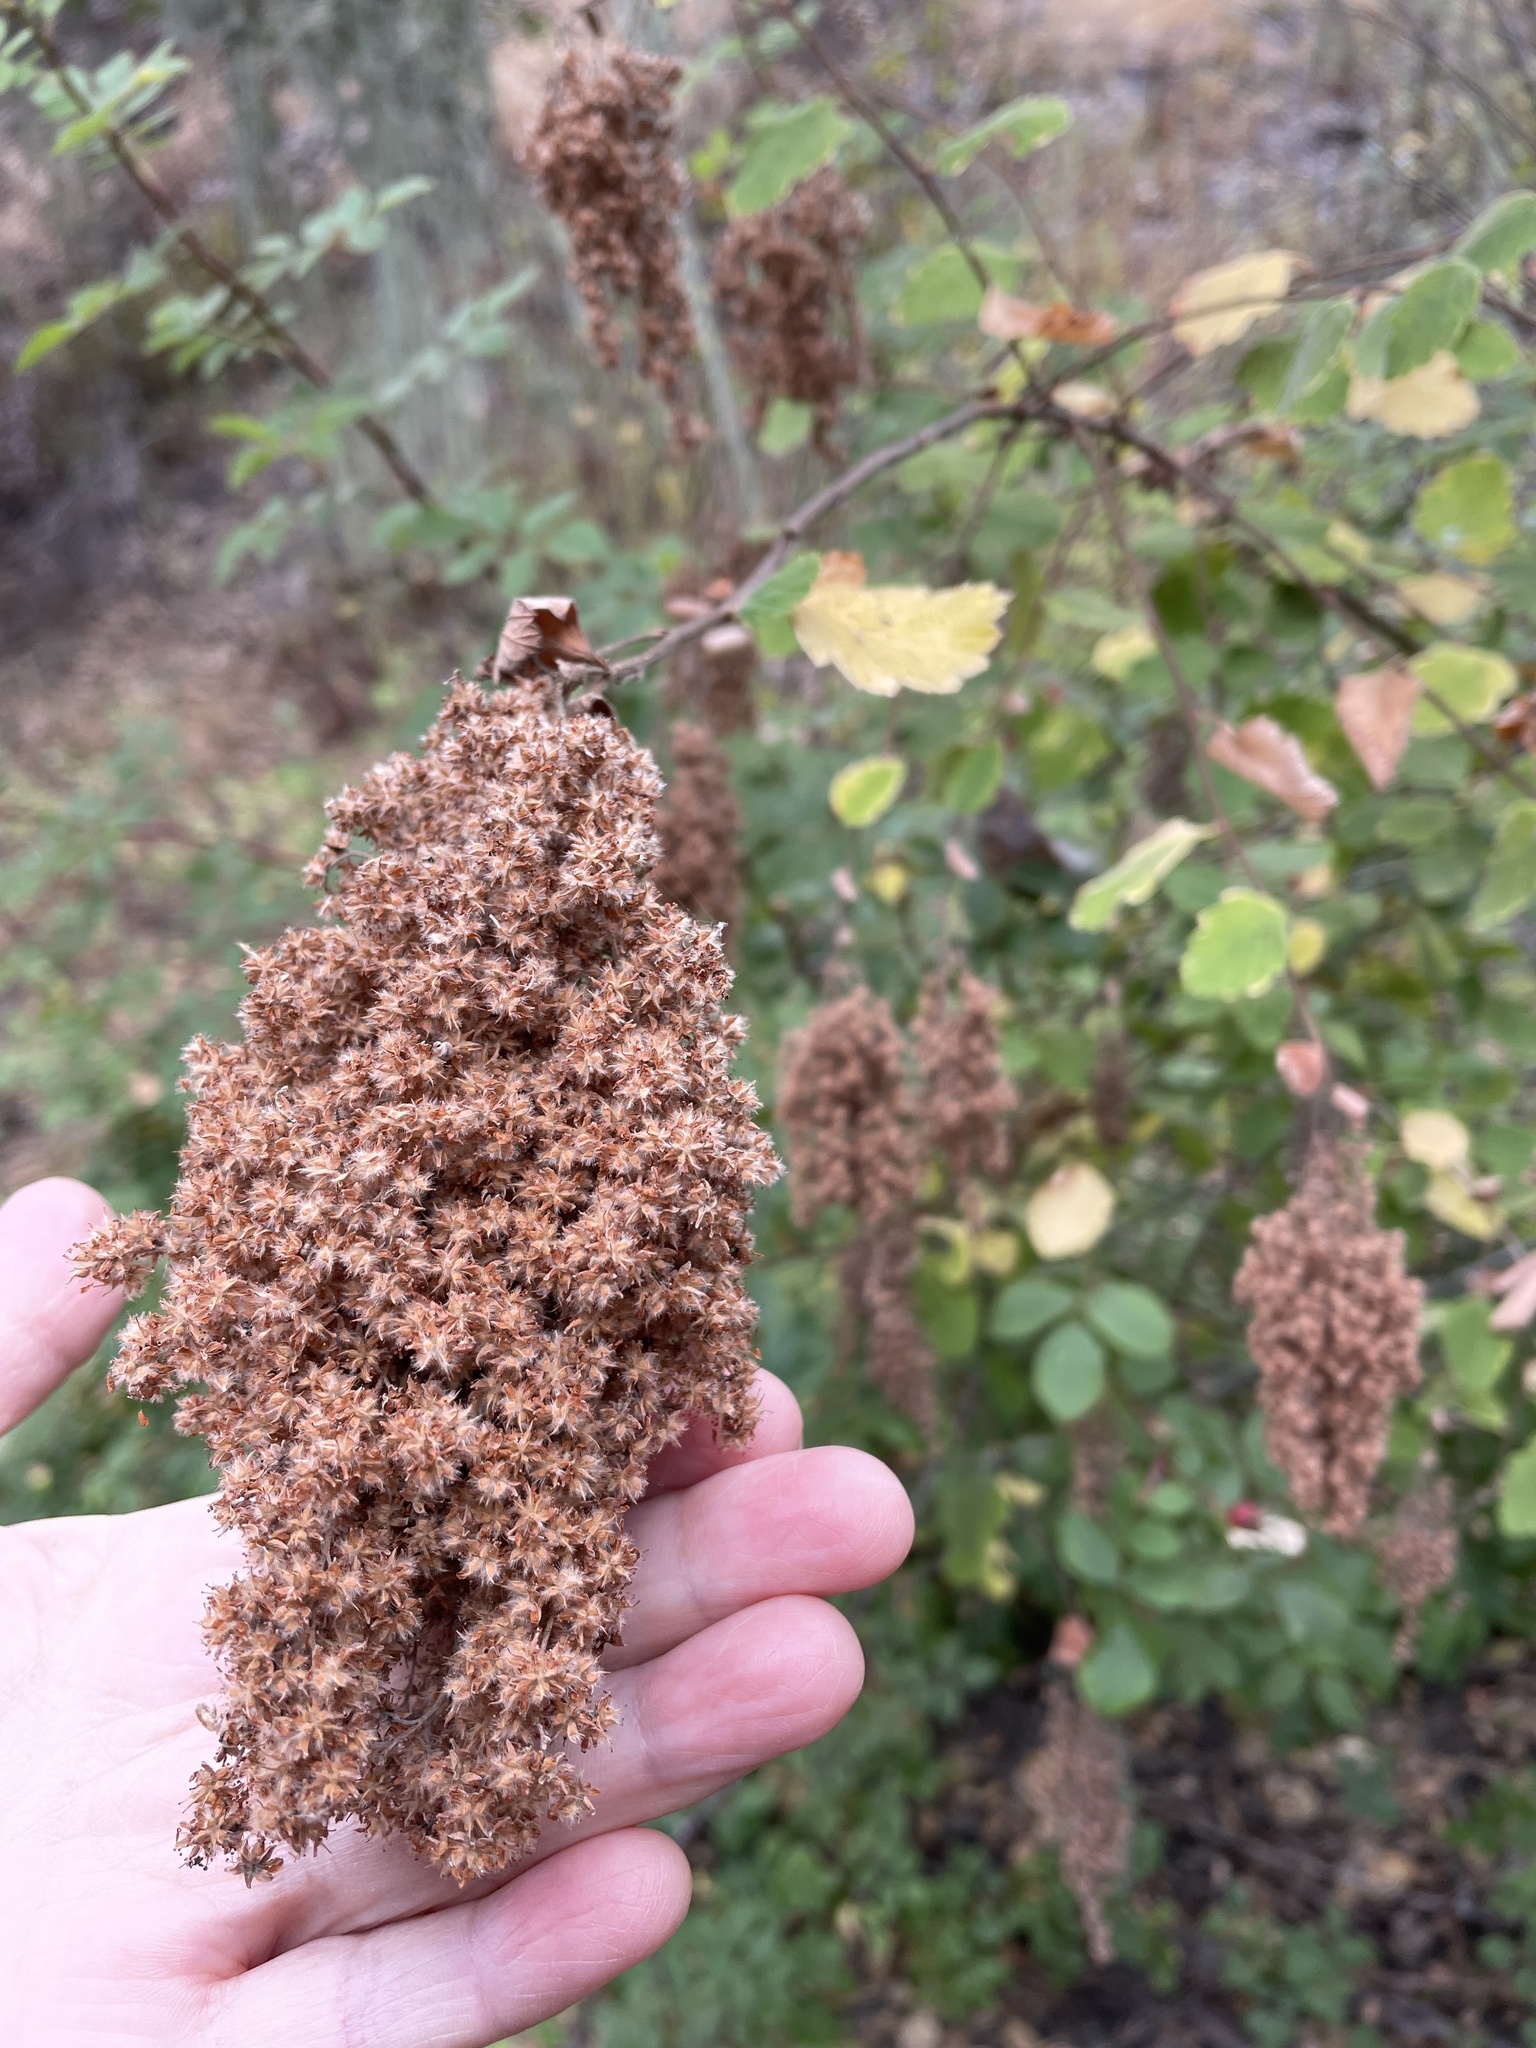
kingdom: Plantae
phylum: Tracheophyta
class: Magnoliopsida
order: Rosales
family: Rosaceae
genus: Holodiscus
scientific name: Holodiscus discolor
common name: Oceanspray
